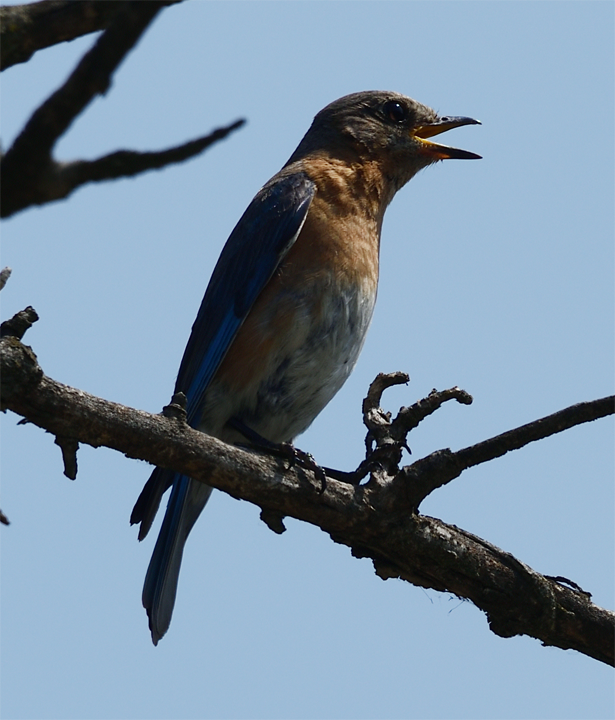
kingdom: Animalia
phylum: Chordata
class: Aves
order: Passeriformes
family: Turdidae
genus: Sialia
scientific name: Sialia sialis
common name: Eastern bluebird
